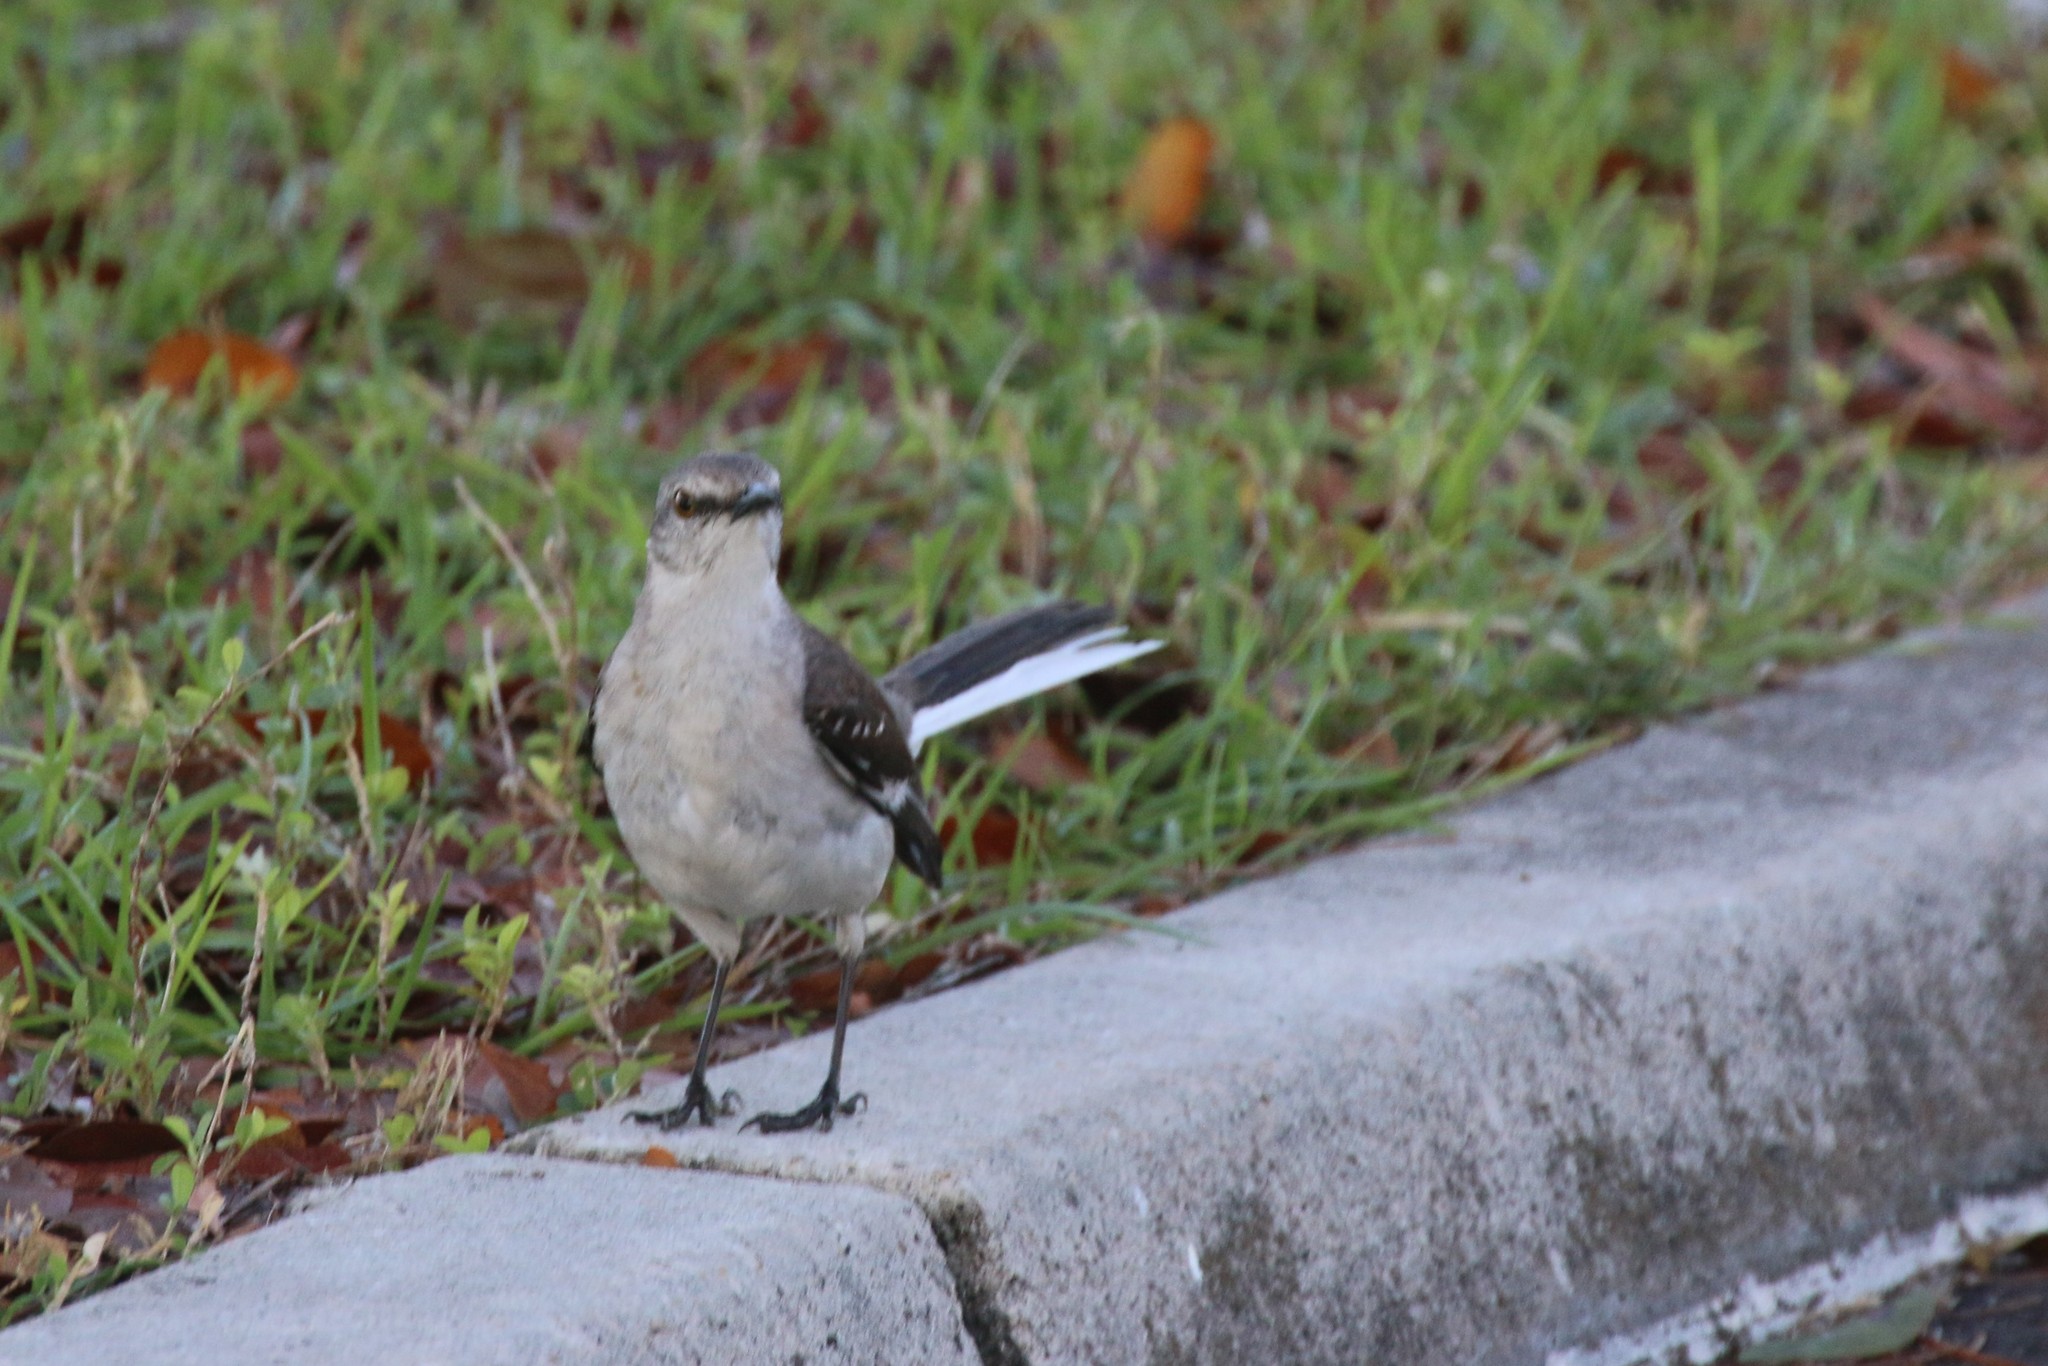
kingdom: Animalia
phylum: Chordata
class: Aves
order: Passeriformes
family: Mimidae
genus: Mimus
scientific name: Mimus polyglottos
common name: Northern mockingbird
